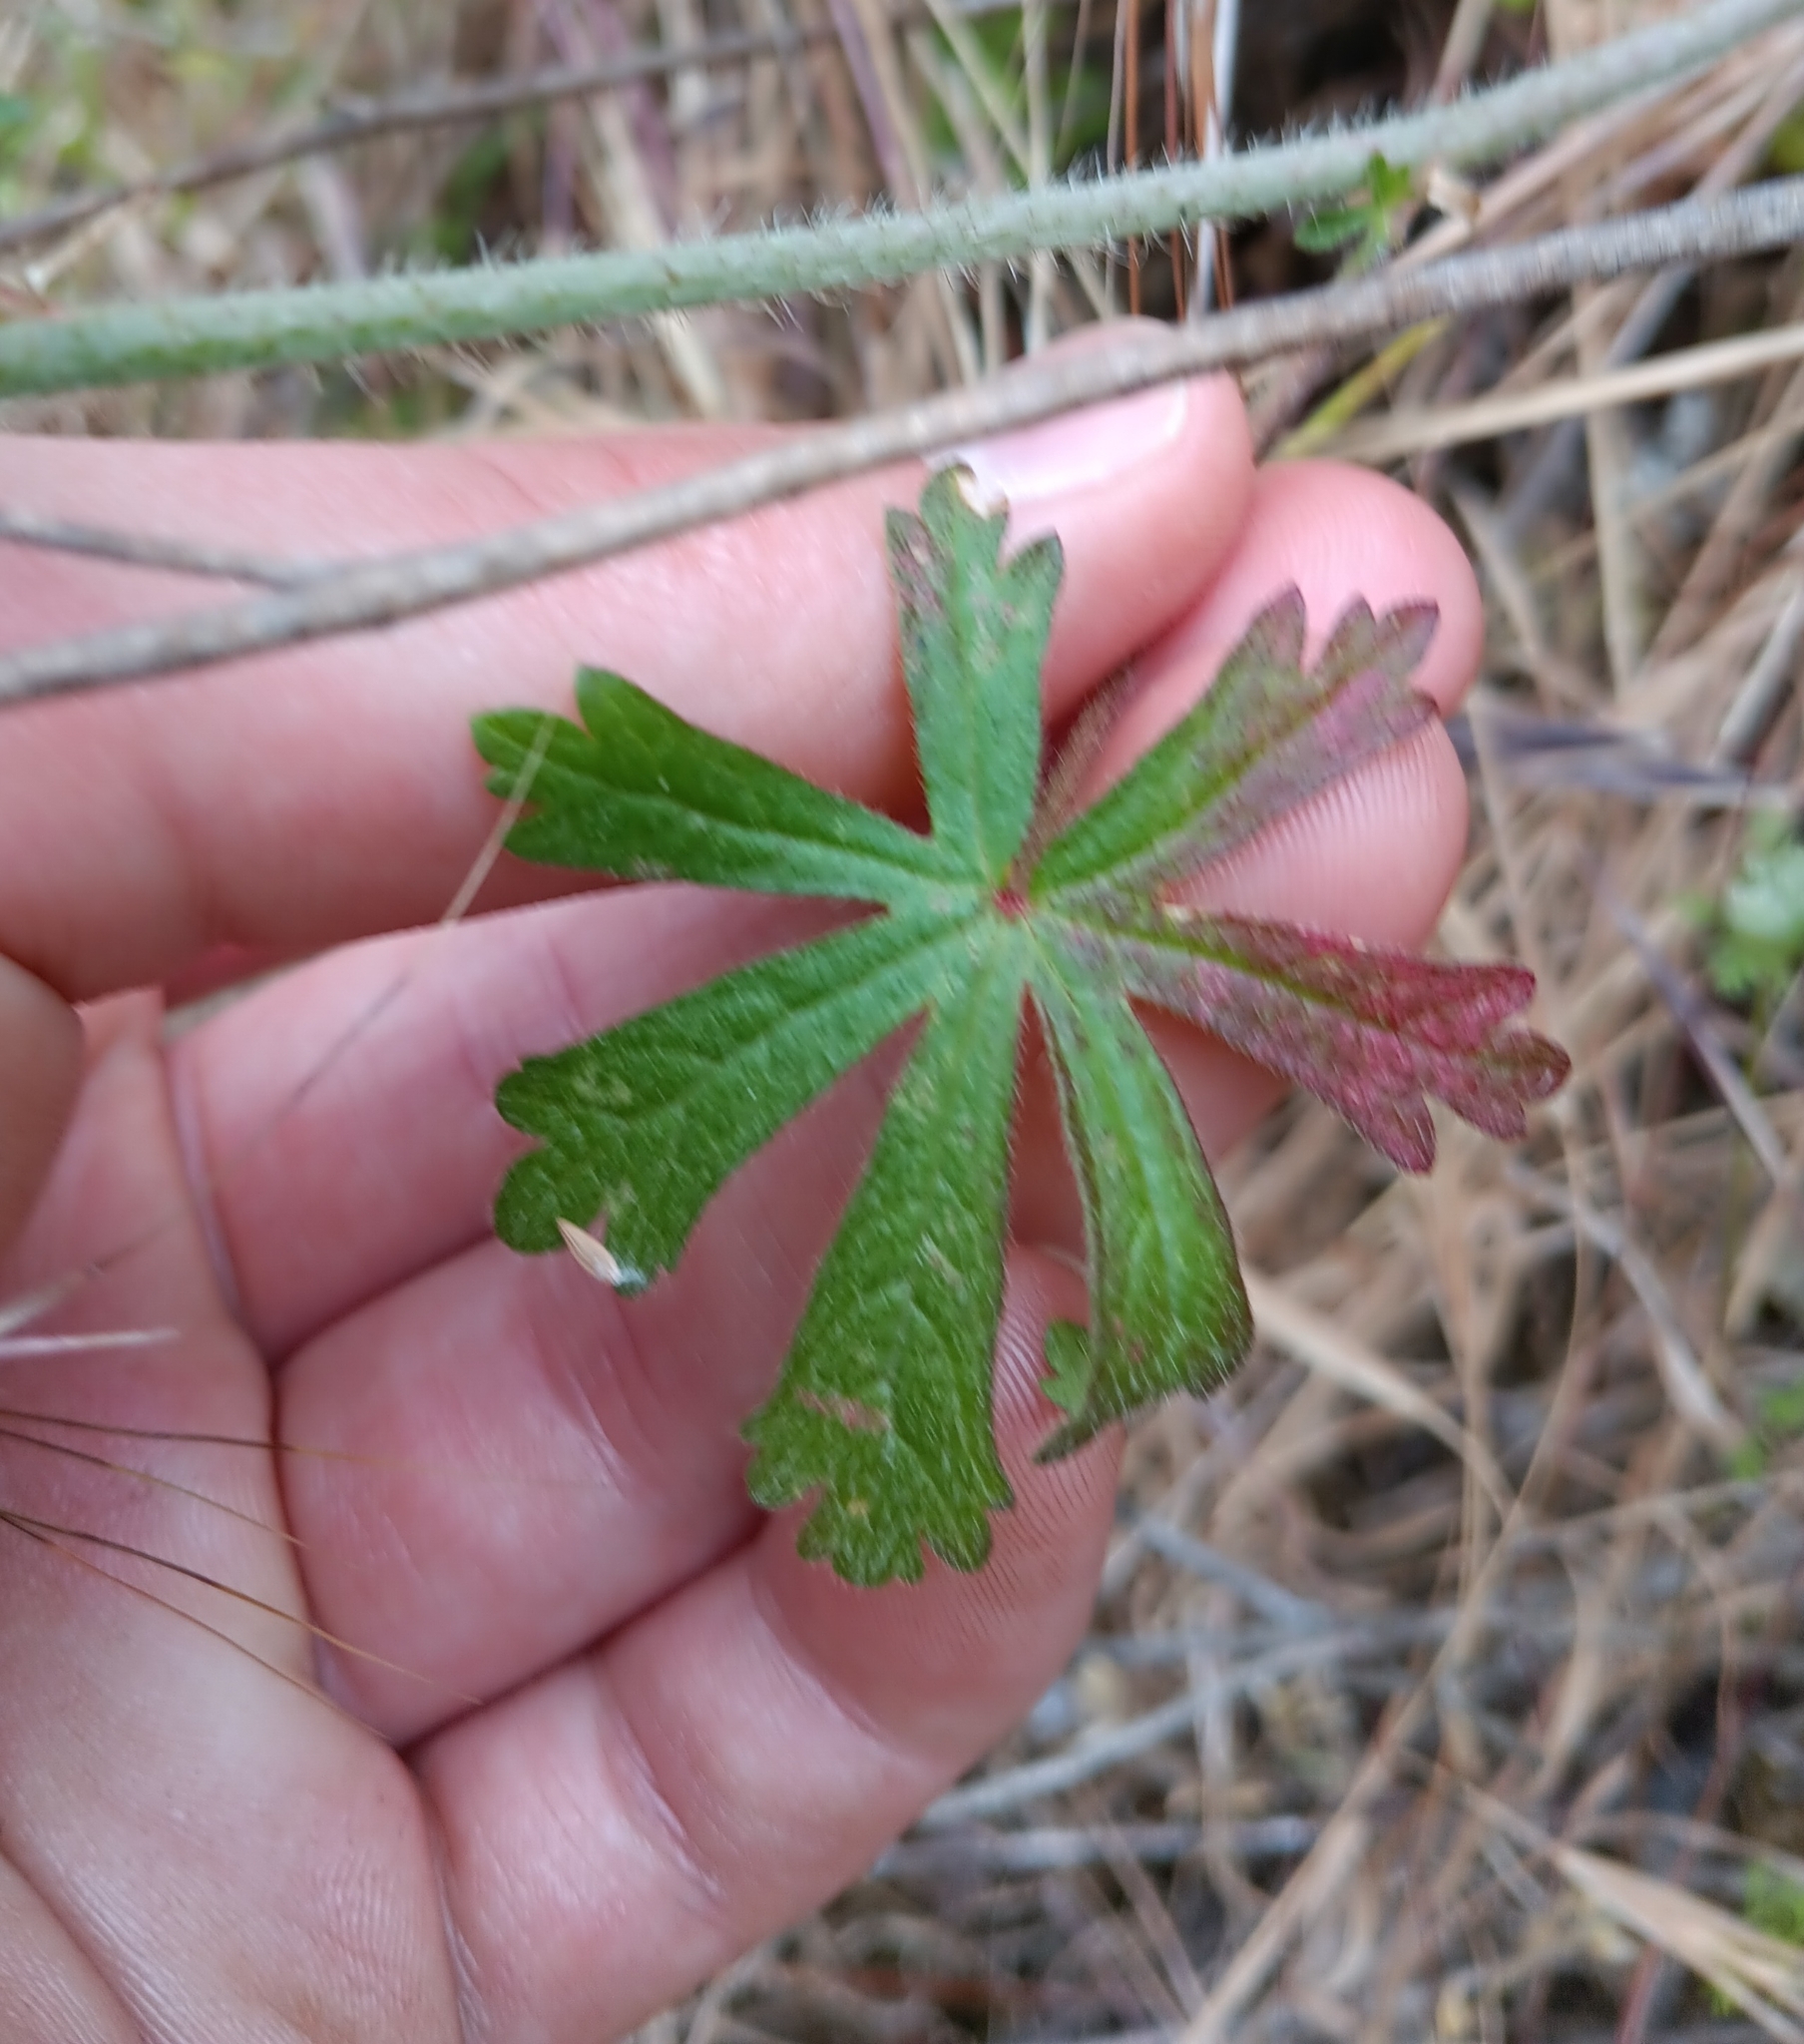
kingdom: Plantae
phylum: Tracheophyta
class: Magnoliopsida
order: Malvales
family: Malvaceae
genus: Sidalcea
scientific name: Sidalcea sparsifolia
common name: Southern checkerbloom
